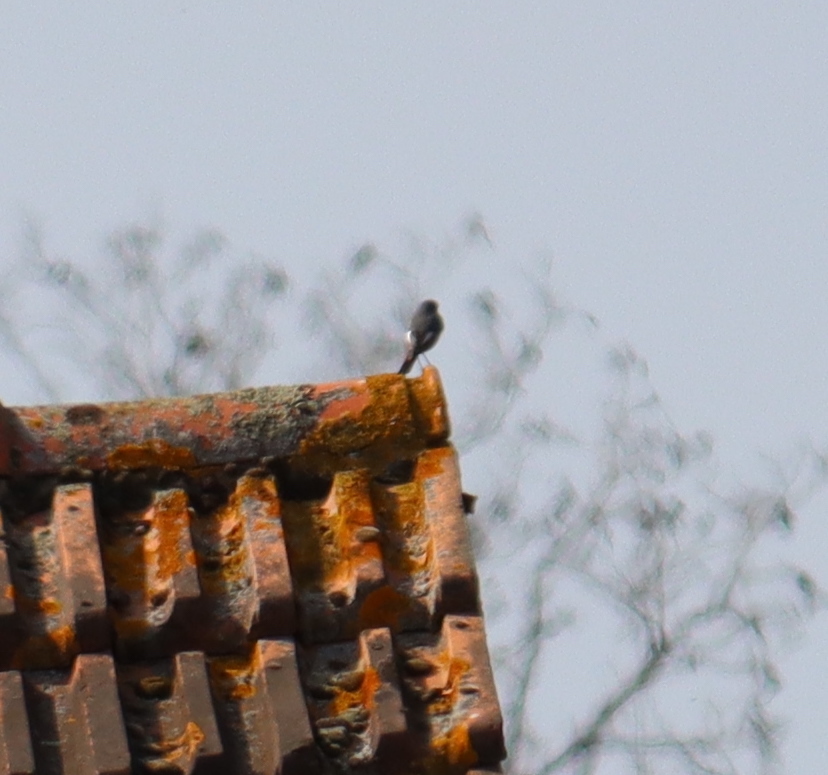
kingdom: Animalia
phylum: Chordata
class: Aves
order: Passeriformes
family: Muscicapidae
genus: Phoenicurus
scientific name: Phoenicurus ochruros
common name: Black redstart
